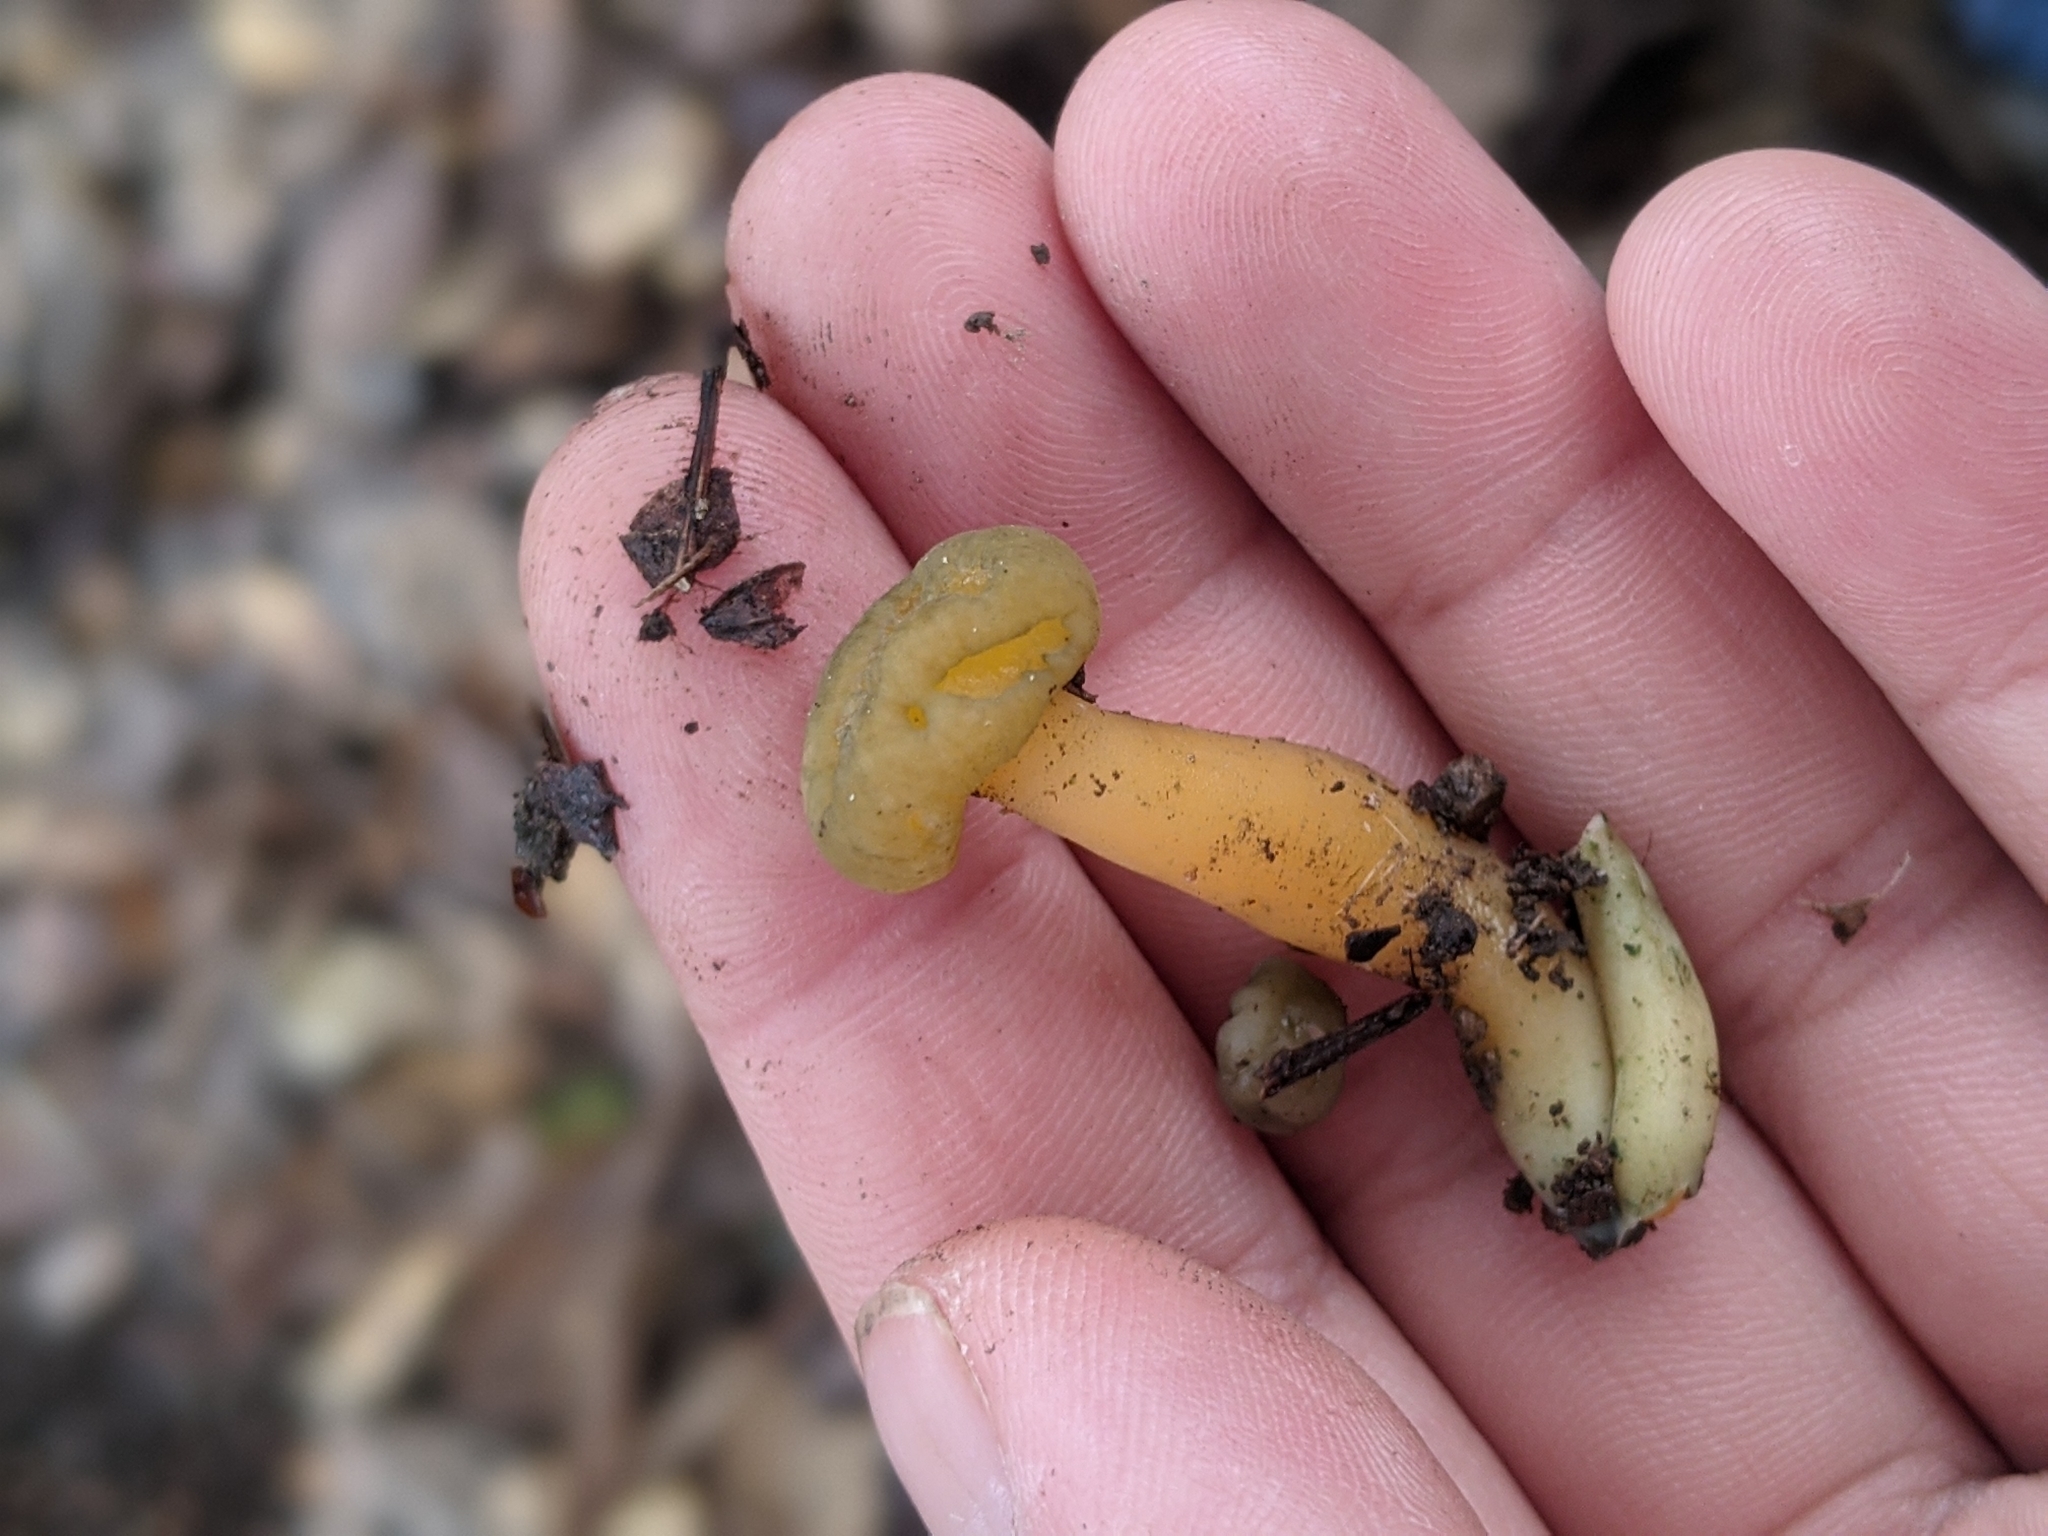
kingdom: Fungi
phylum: Ascomycota
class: Leotiomycetes
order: Leotiales
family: Leotiaceae
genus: Leotia
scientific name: Leotia lubrica
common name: Jellybaby
